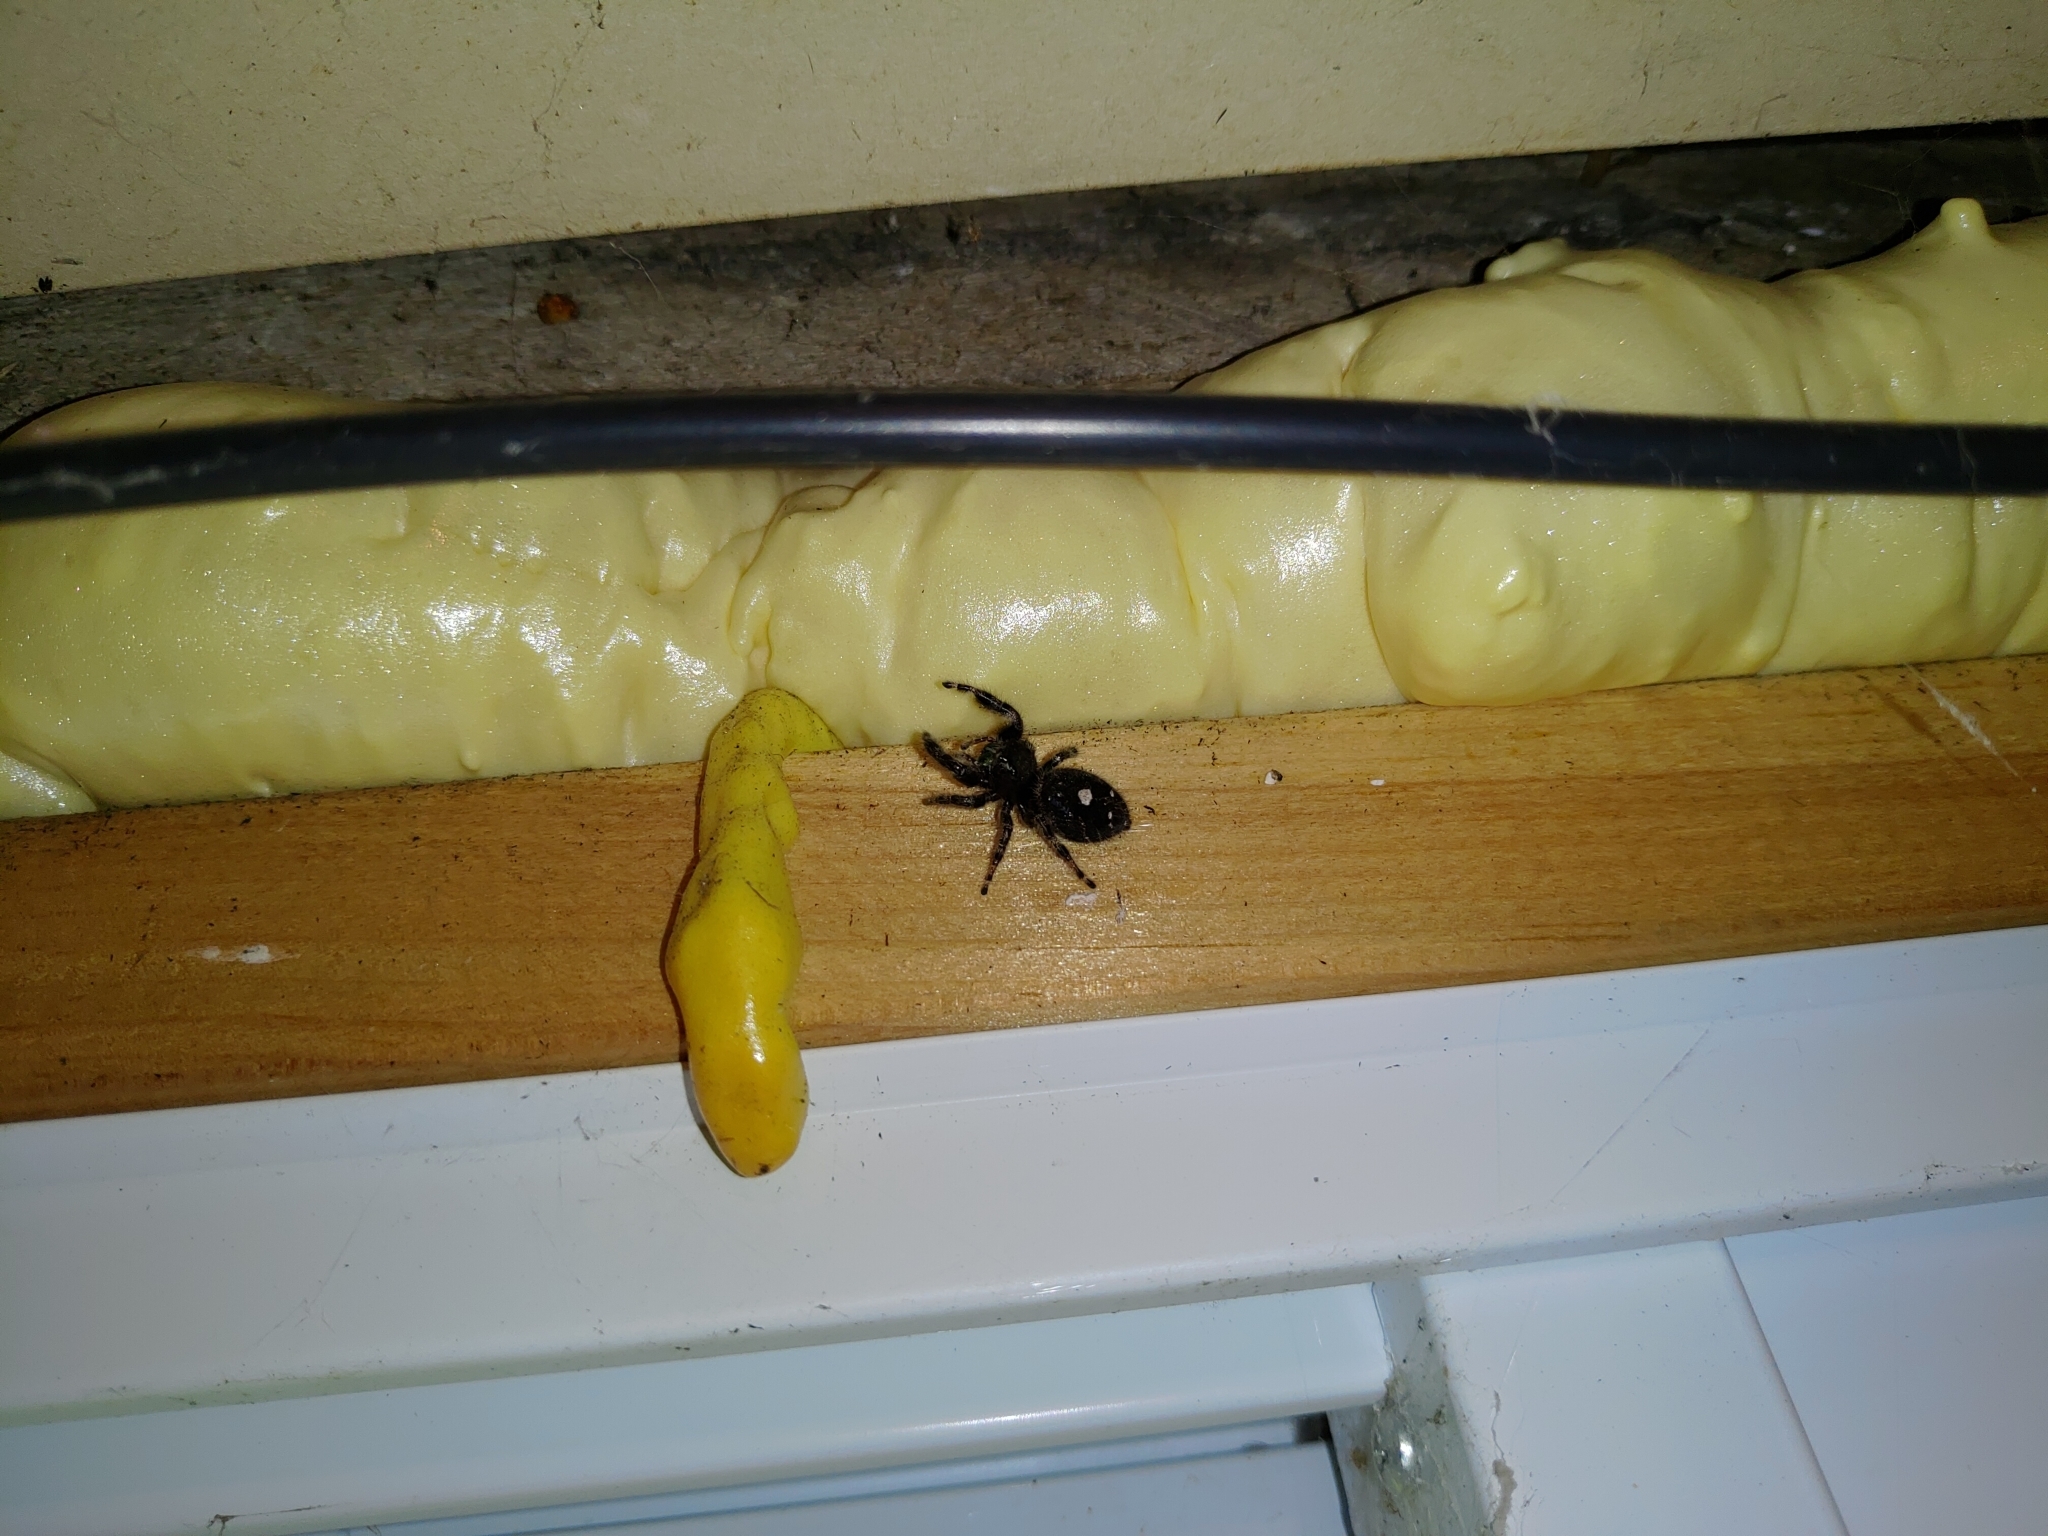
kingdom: Animalia
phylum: Arthropoda
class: Arachnida
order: Araneae
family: Salticidae
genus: Phidippus
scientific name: Phidippus audax
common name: Bold jumper
